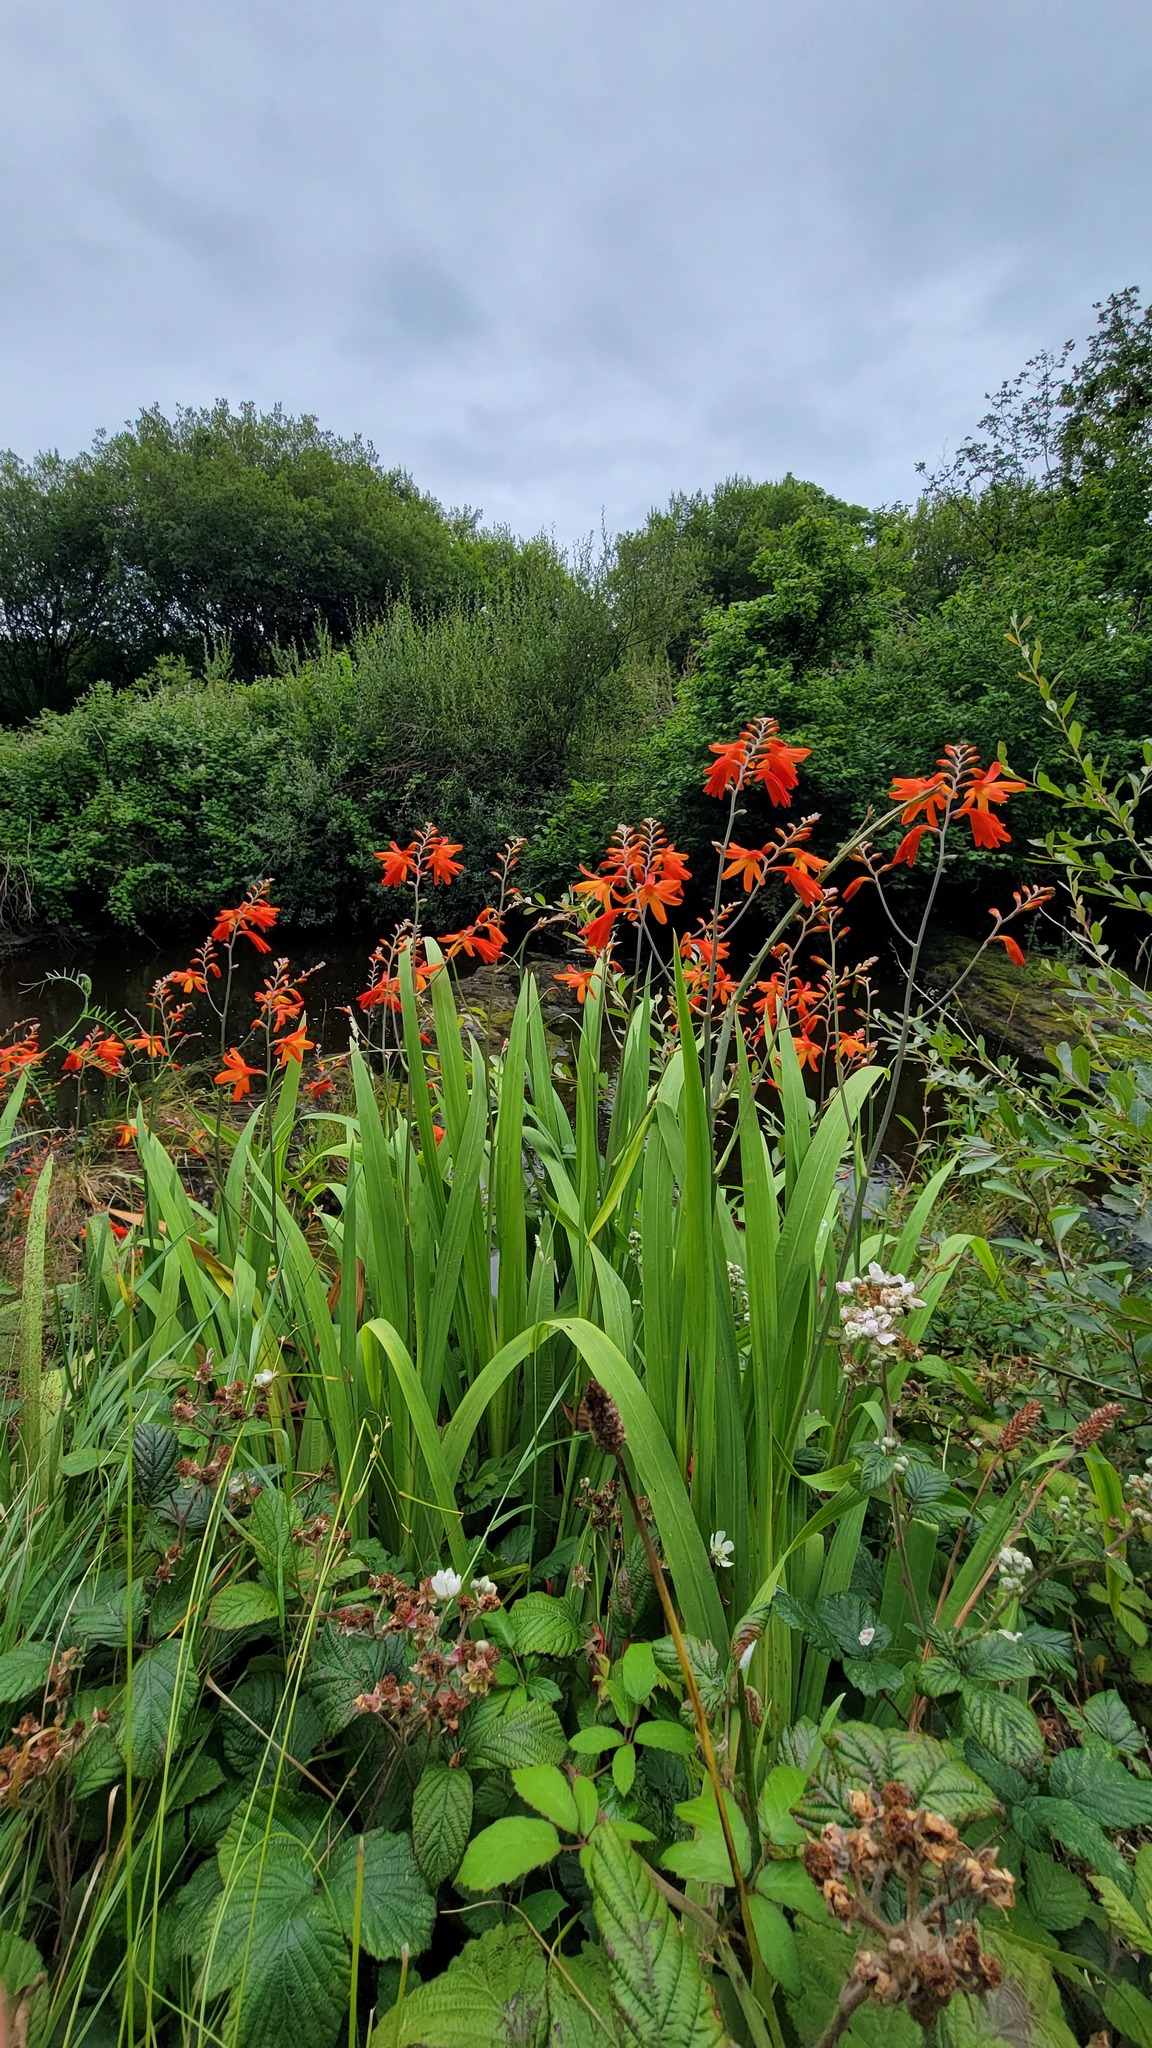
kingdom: Plantae
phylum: Tracheophyta
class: Liliopsida
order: Asparagales
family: Iridaceae
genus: Crocosmia
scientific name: Crocosmia crocosmiiflora
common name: Montbretia
